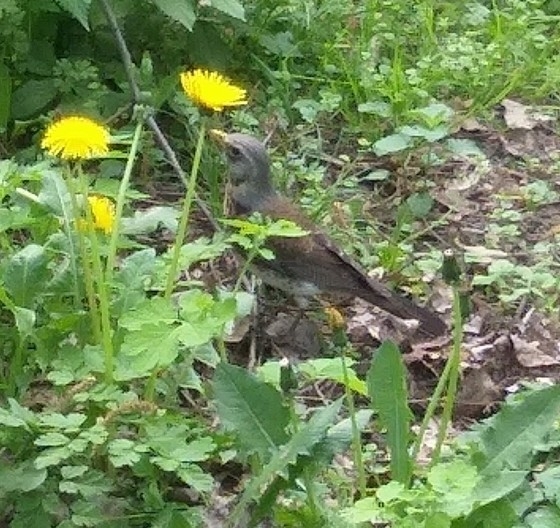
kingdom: Animalia
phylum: Chordata
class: Aves
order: Passeriformes
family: Turdidae
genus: Turdus
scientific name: Turdus pilaris
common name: Fieldfare
